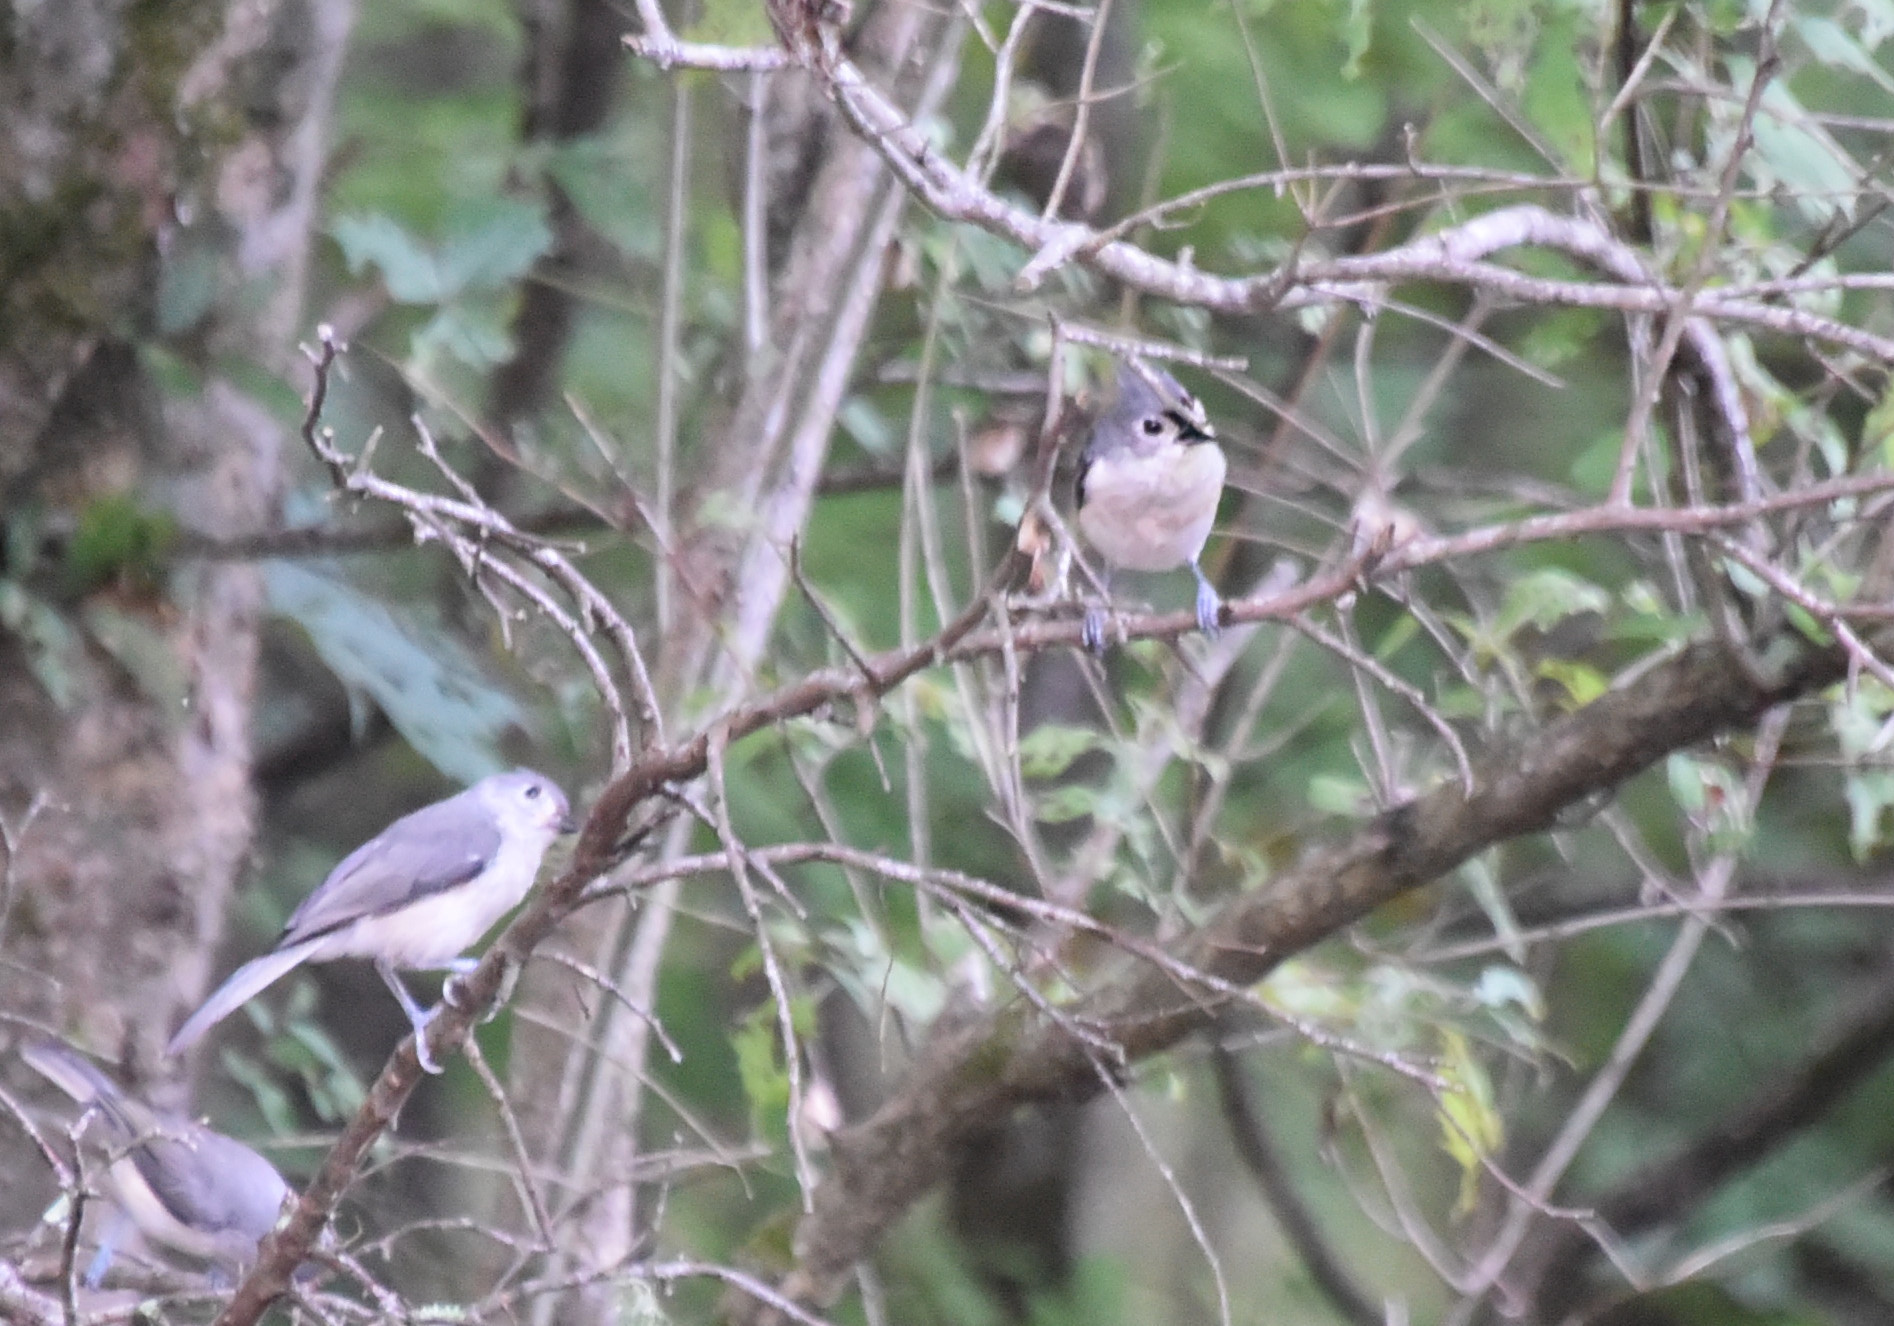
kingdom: Animalia
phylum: Chordata
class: Aves
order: Passeriformes
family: Paridae
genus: Baeolophus
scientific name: Baeolophus bicolor
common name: Tufted titmouse
